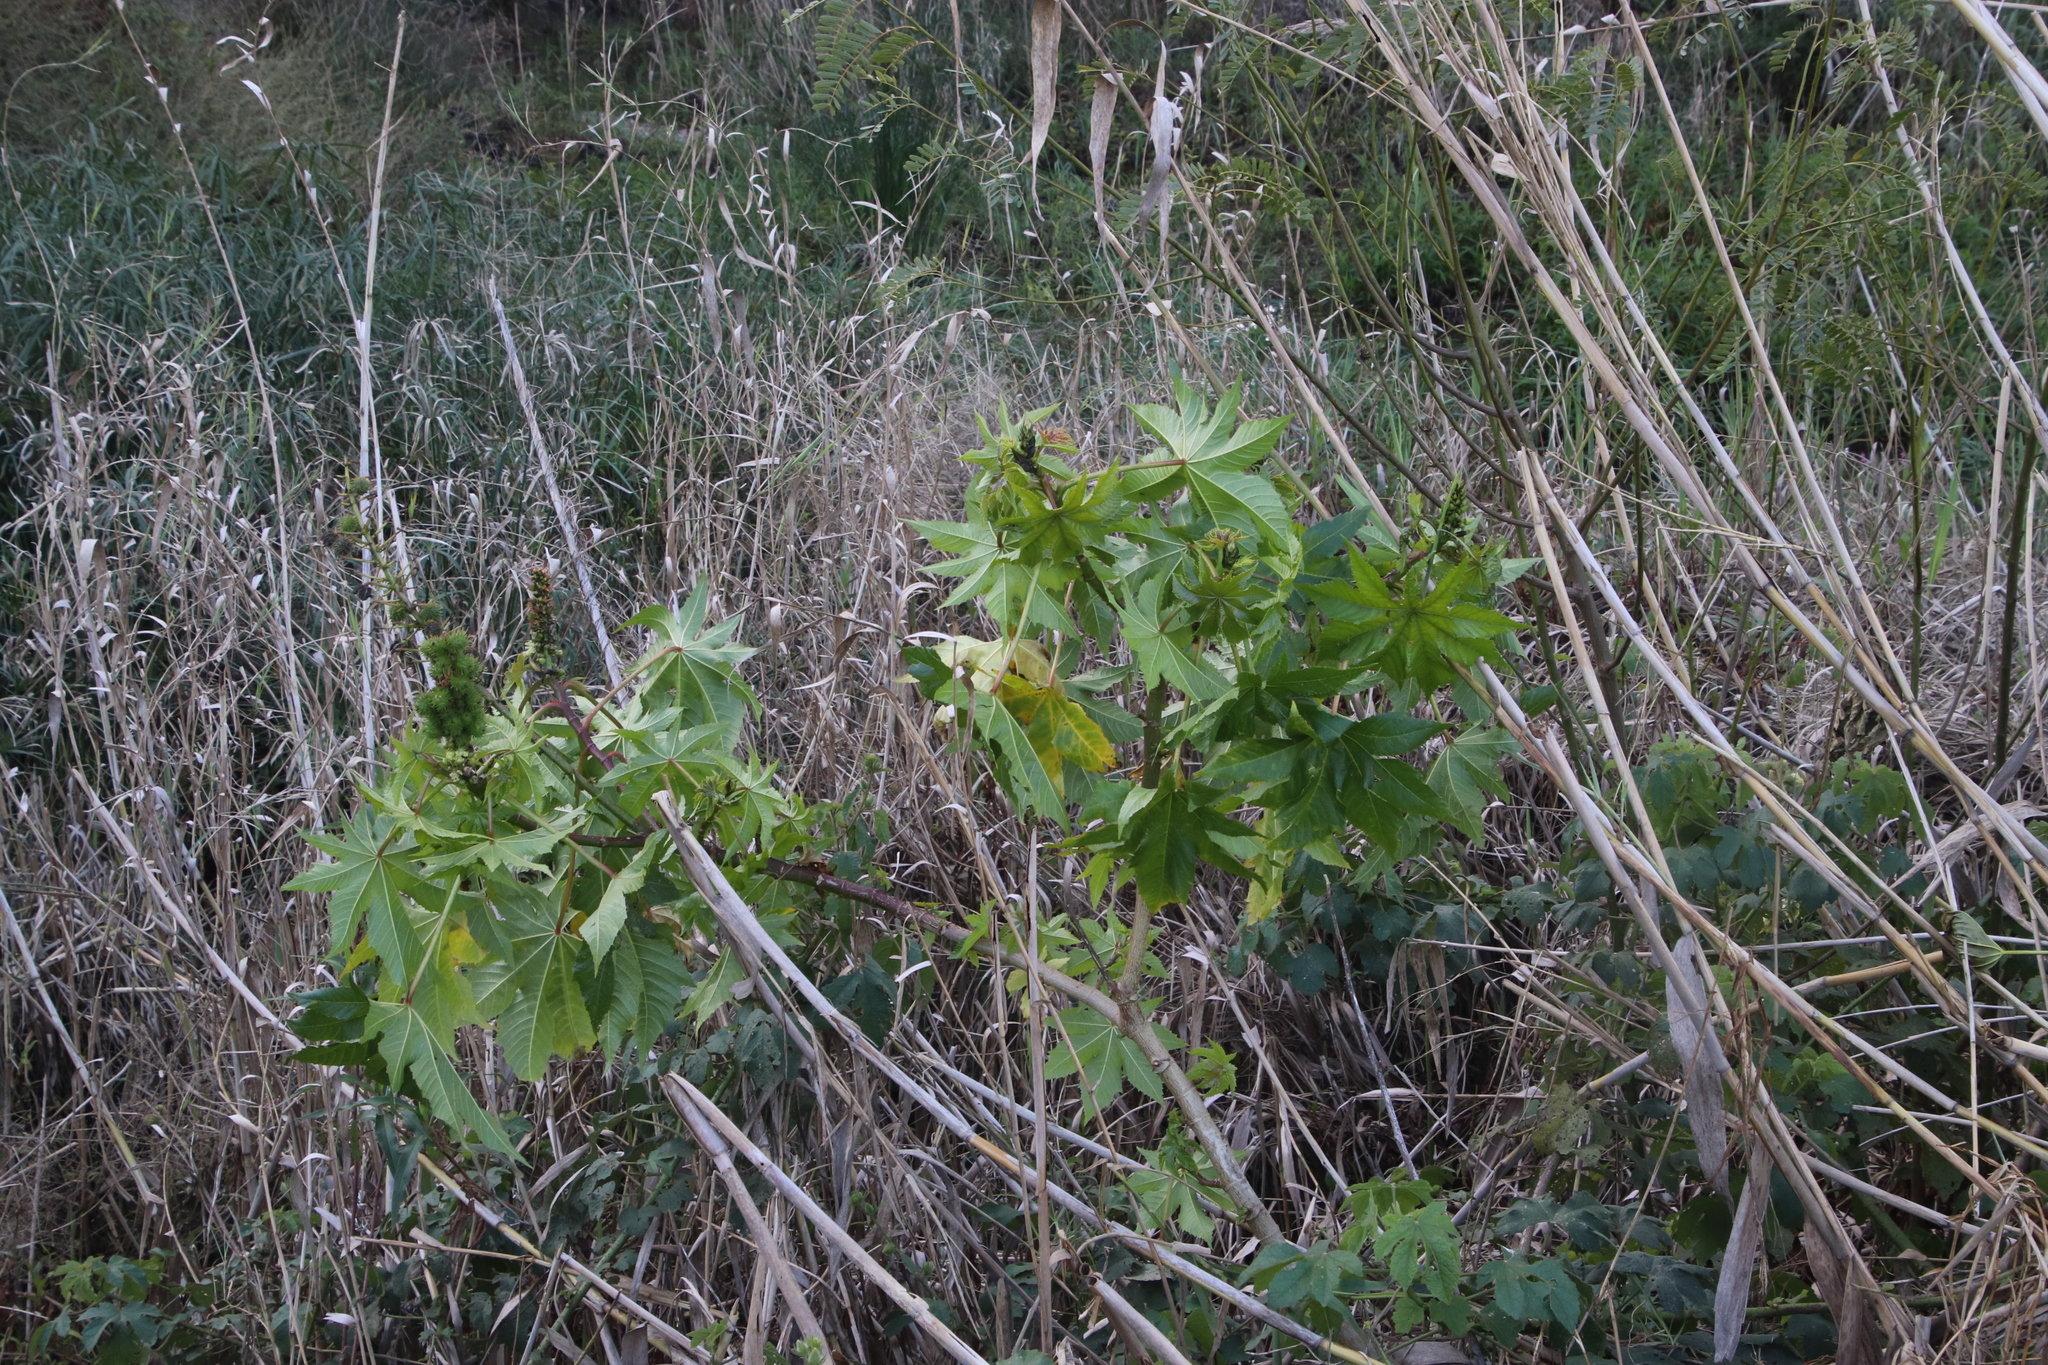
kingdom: Plantae
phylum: Tracheophyta
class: Magnoliopsida
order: Malpighiales
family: Euphorbiaceae
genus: Ricinus
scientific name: Ricinus communis
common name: Castor-oil-plant
